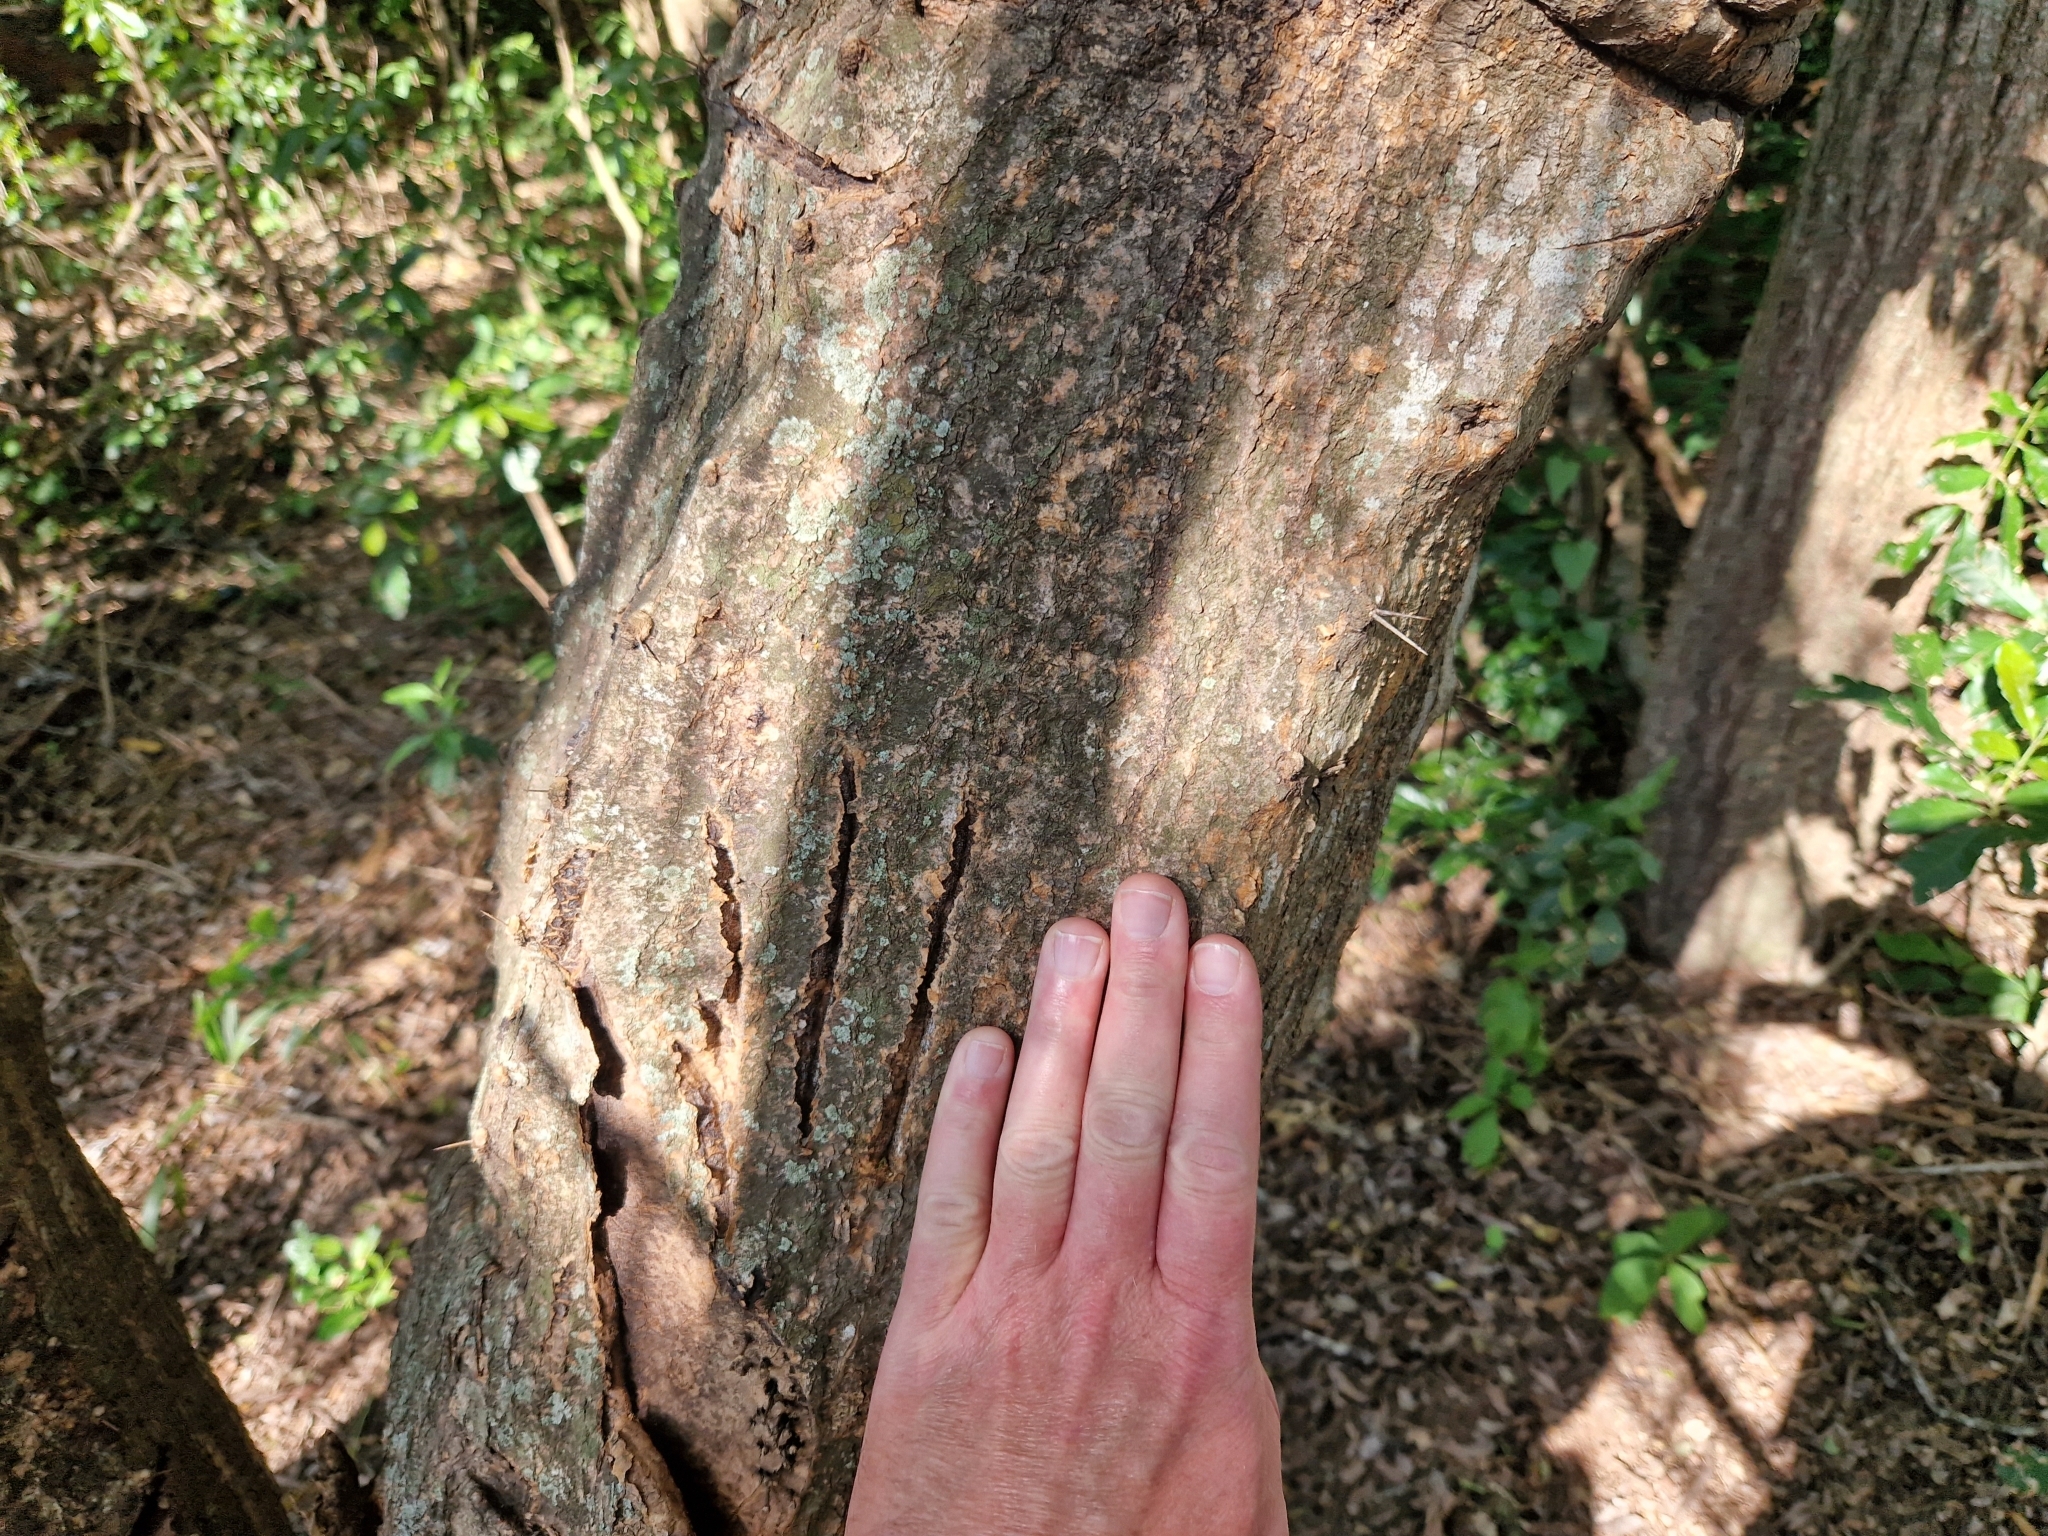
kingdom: Animalia
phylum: Chordata
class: Mammalia
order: Carnivora
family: Felidae
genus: Panthera
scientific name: Panthera onca
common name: Jaguar
